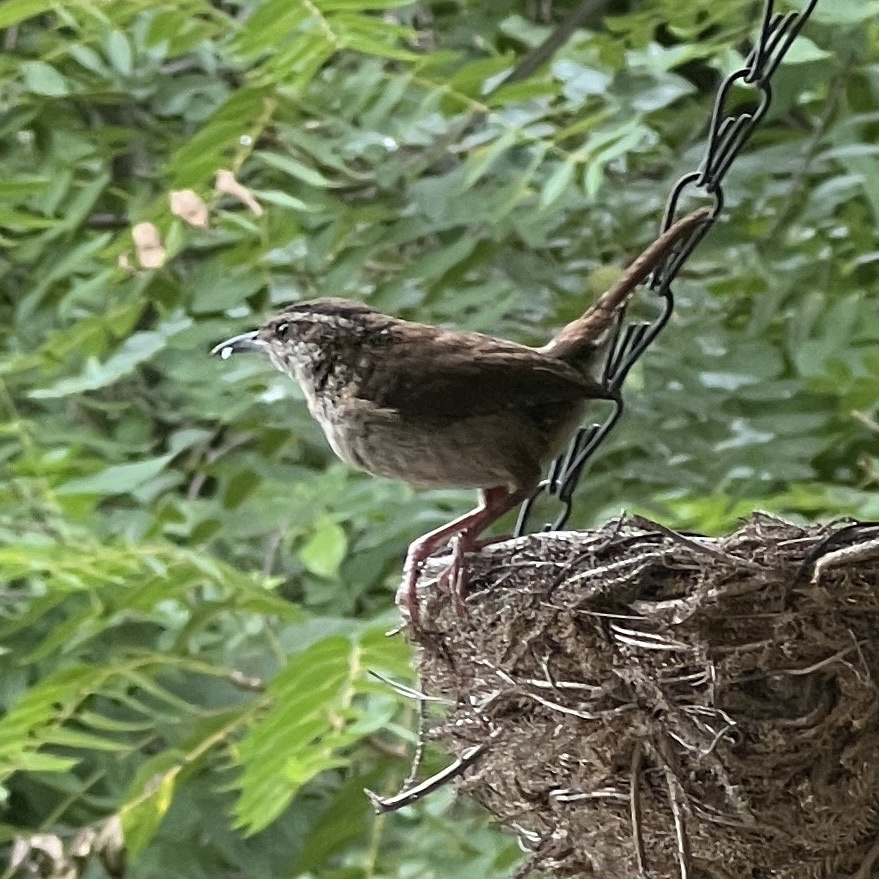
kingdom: Animalia
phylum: Chordata
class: Aves
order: Passeriformes
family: Troglodytidae
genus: Thryothorus
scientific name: Thryothorus ludovicianus
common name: Carolina wren
